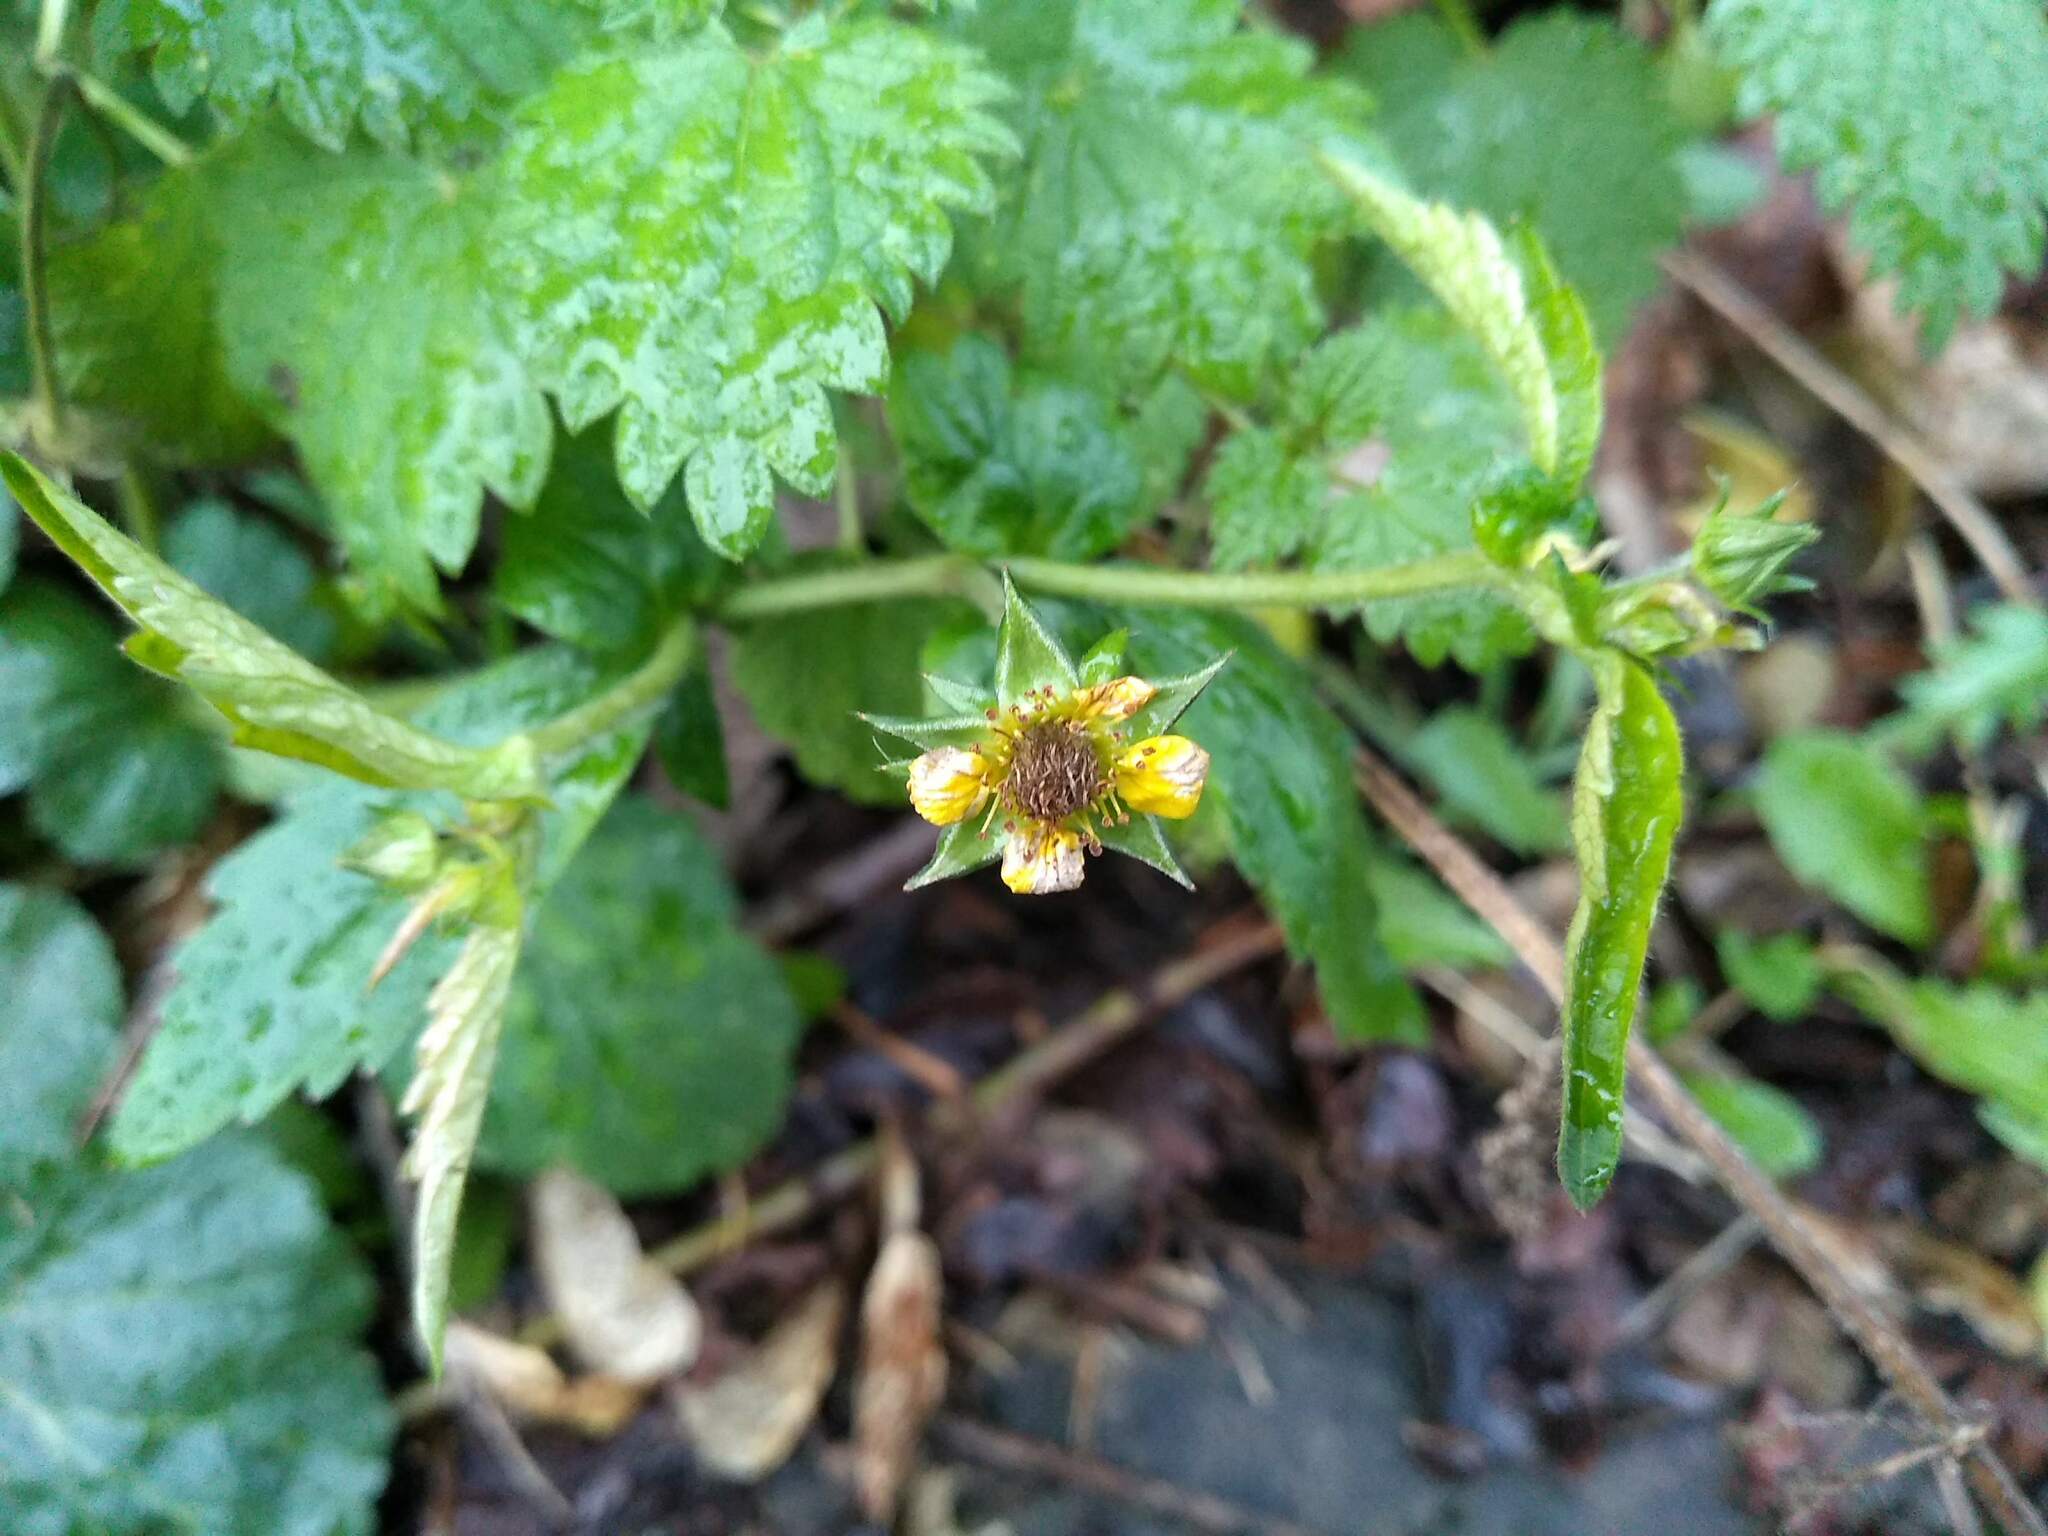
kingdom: Plantae
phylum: Tracheophyta
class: Magnoliopsida
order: Rosales
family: Rosaceae
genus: Geum
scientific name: Geum urbanum
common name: Wood avens
